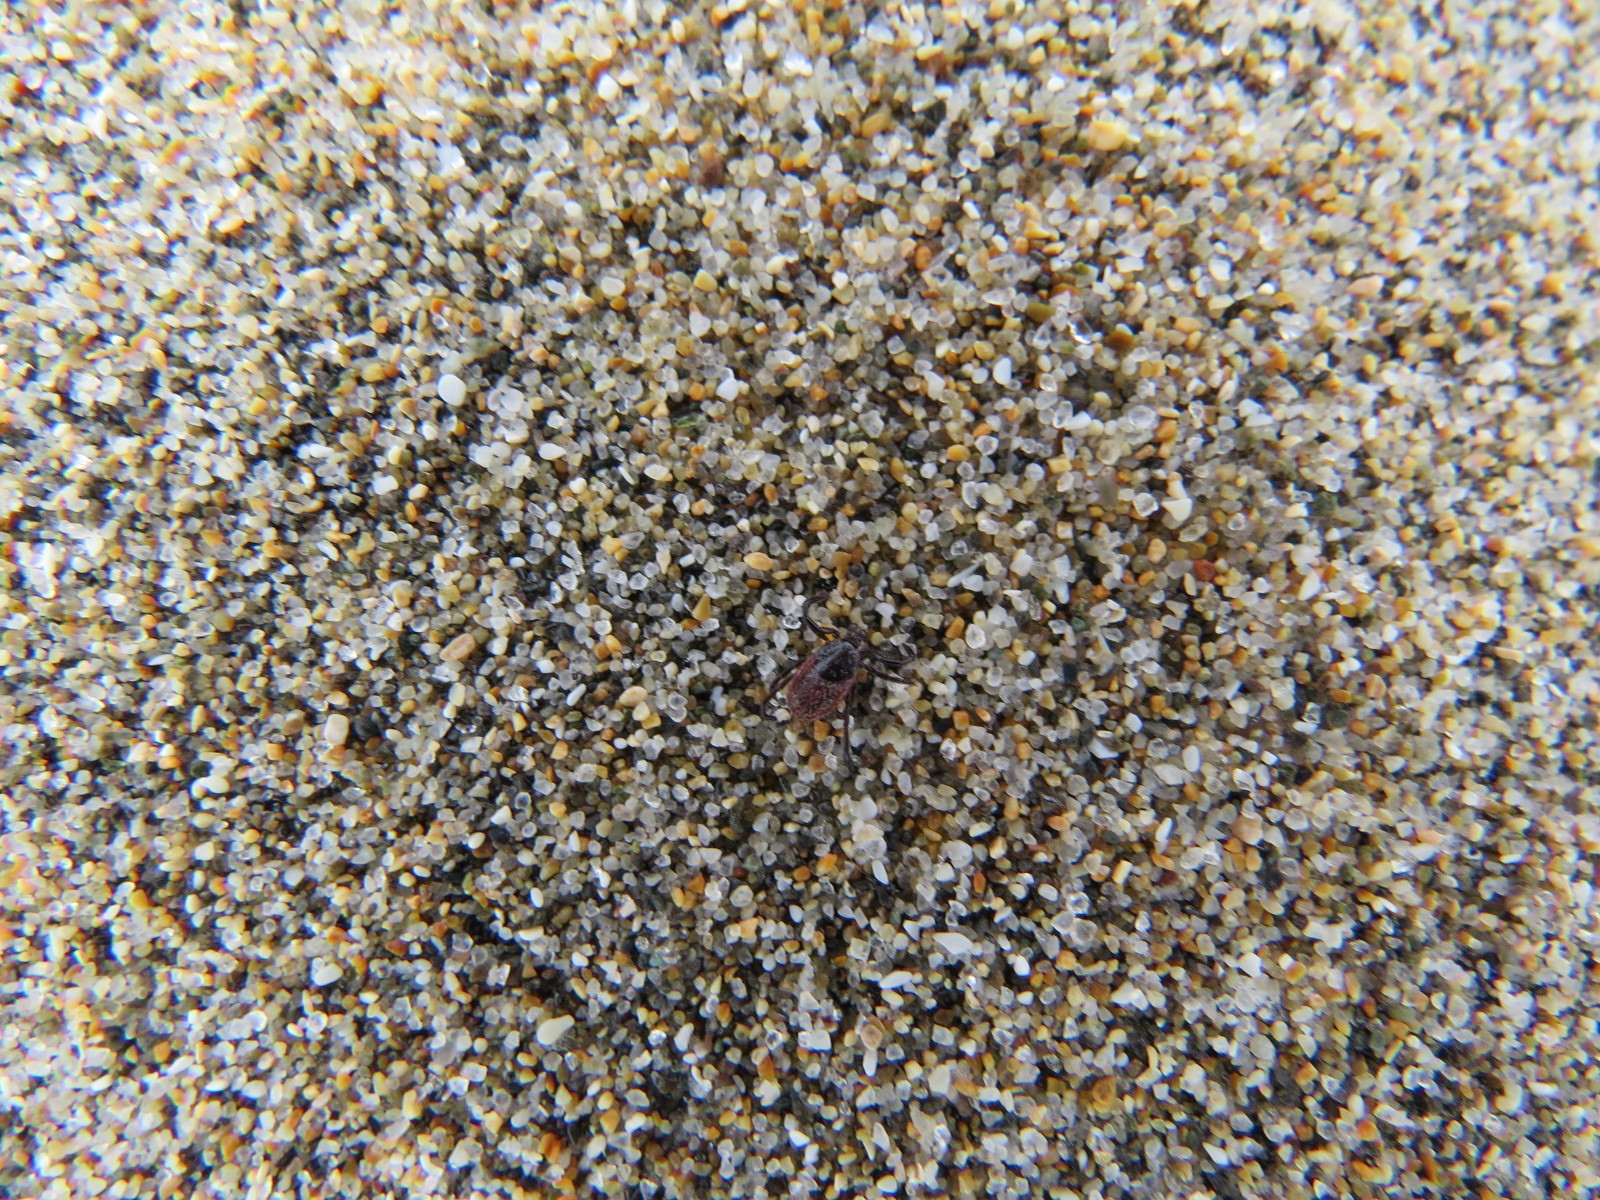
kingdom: Animalia
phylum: Arthropoda
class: Arachnida
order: Ixodida
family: Ixodidae
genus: Ixodes
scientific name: Ixodes pacificus
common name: California black-legged tick
